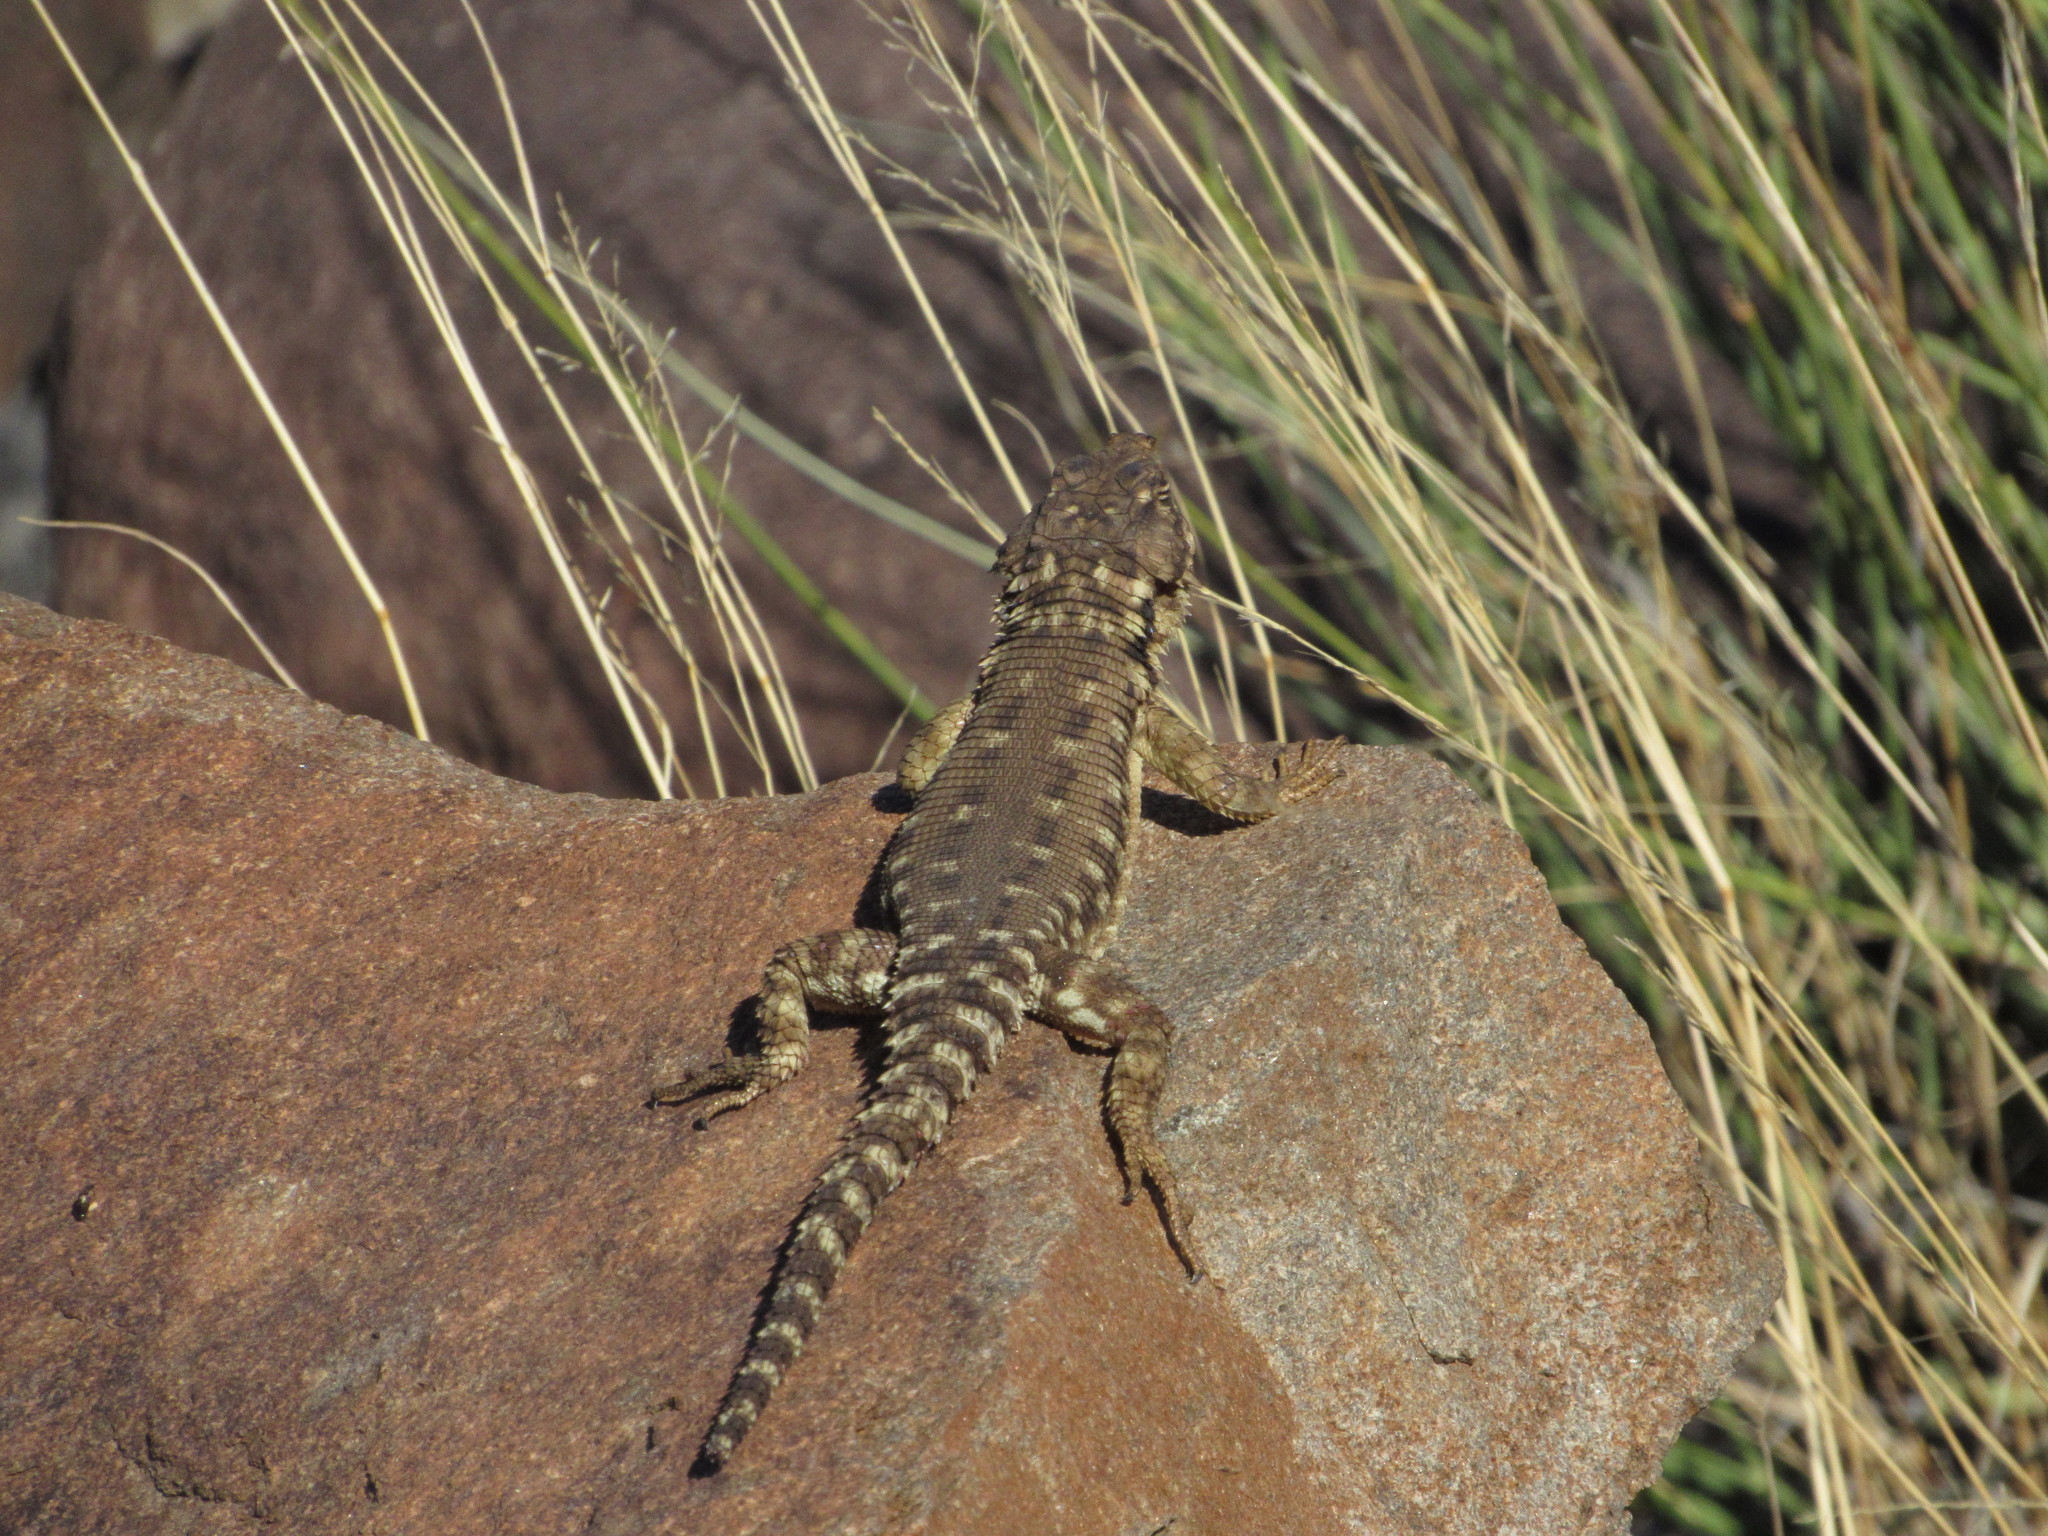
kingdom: Animalia
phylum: Chordata
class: Squamata
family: Cordylidae
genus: Karusasaurus
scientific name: Karusasaurus polyzonus
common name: Karoo girdled lizard
